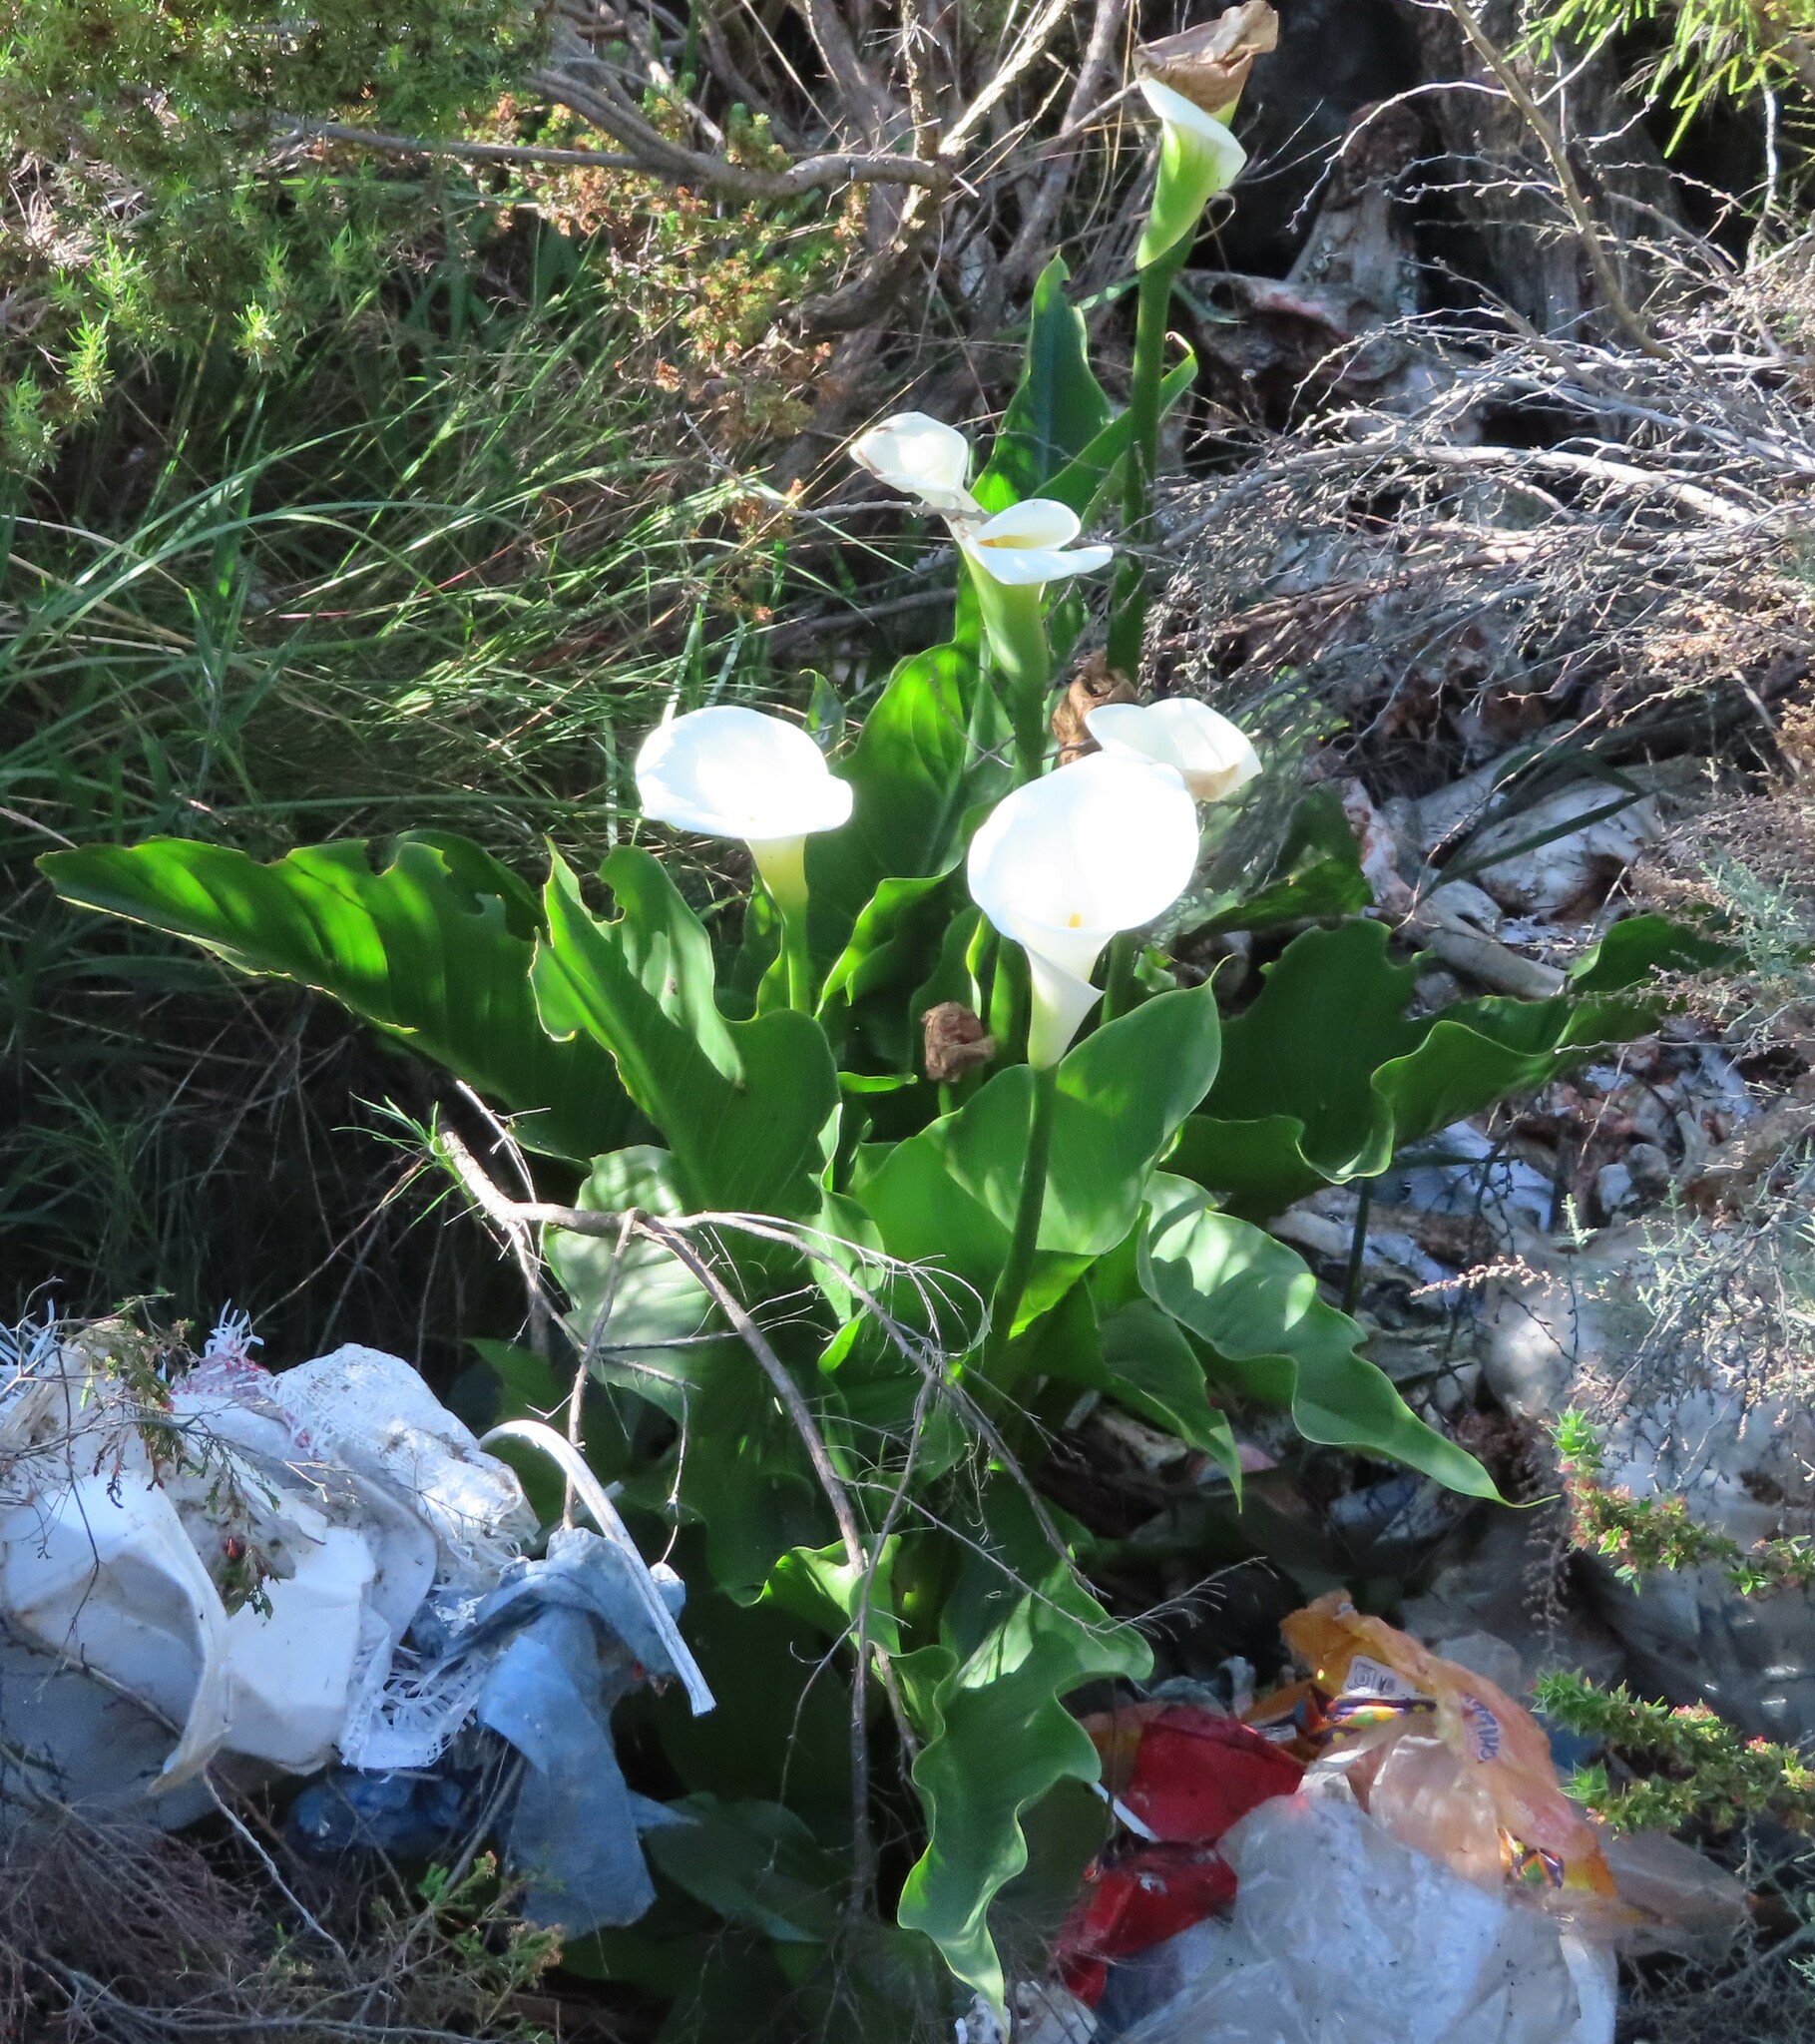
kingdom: Plantae
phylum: Tracheophyta
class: Liliopsida
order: Alismatales
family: Araceae
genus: Zantedeschia
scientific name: Zantedeschia aethiopica
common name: Altar-lily
